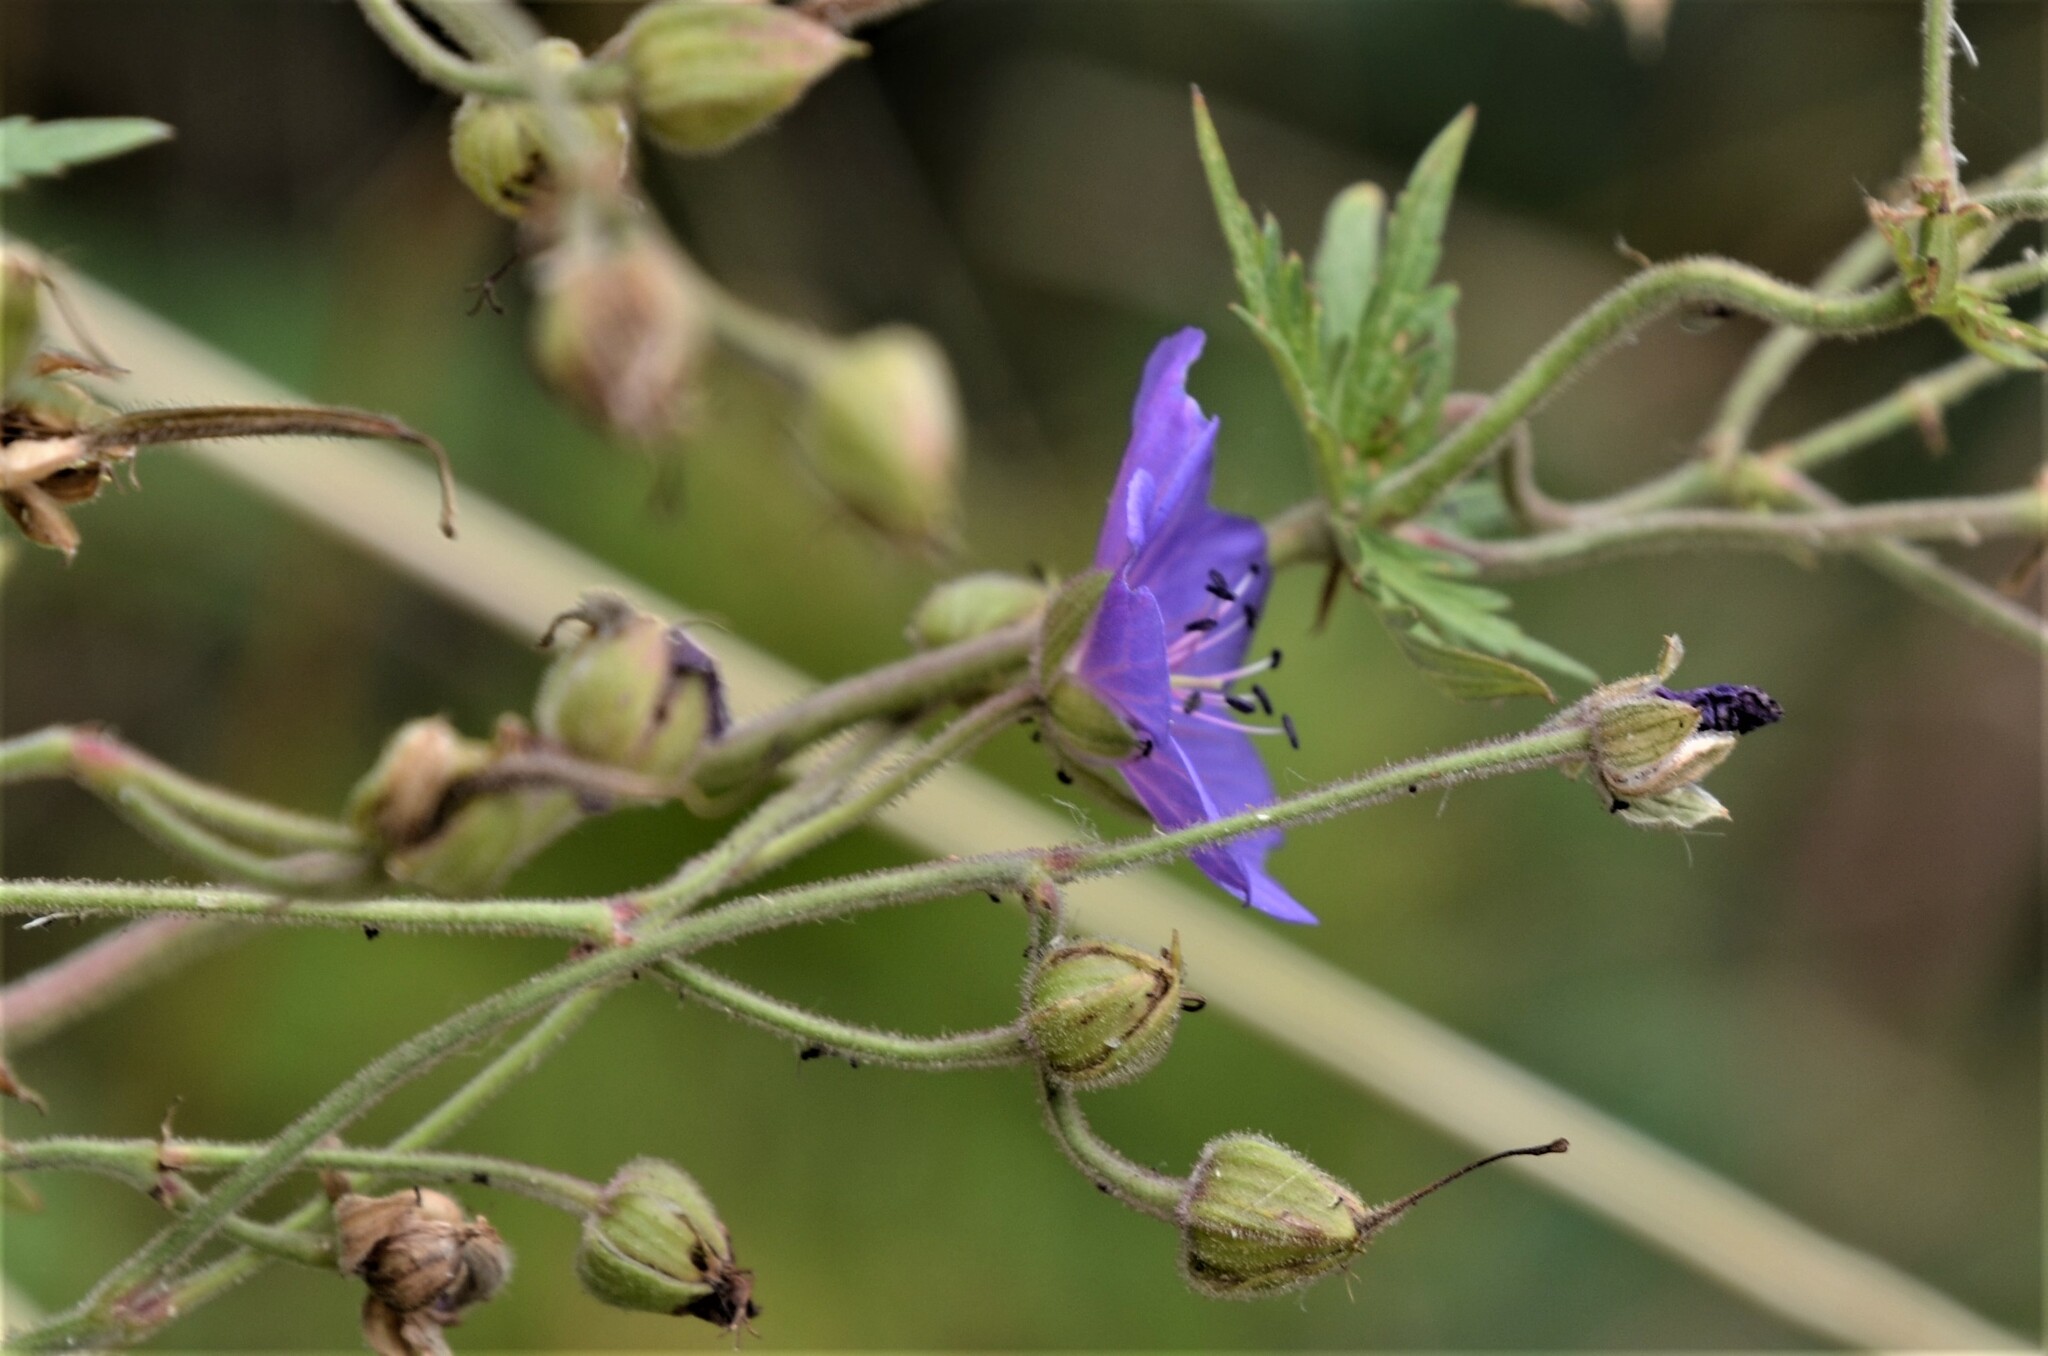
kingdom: Plantae
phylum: Tracheophyta
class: Magnoliopsida
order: Geraniales
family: Geraniaceae
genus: Geranium
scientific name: Geranium pratense
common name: Meadow crane's-bill
